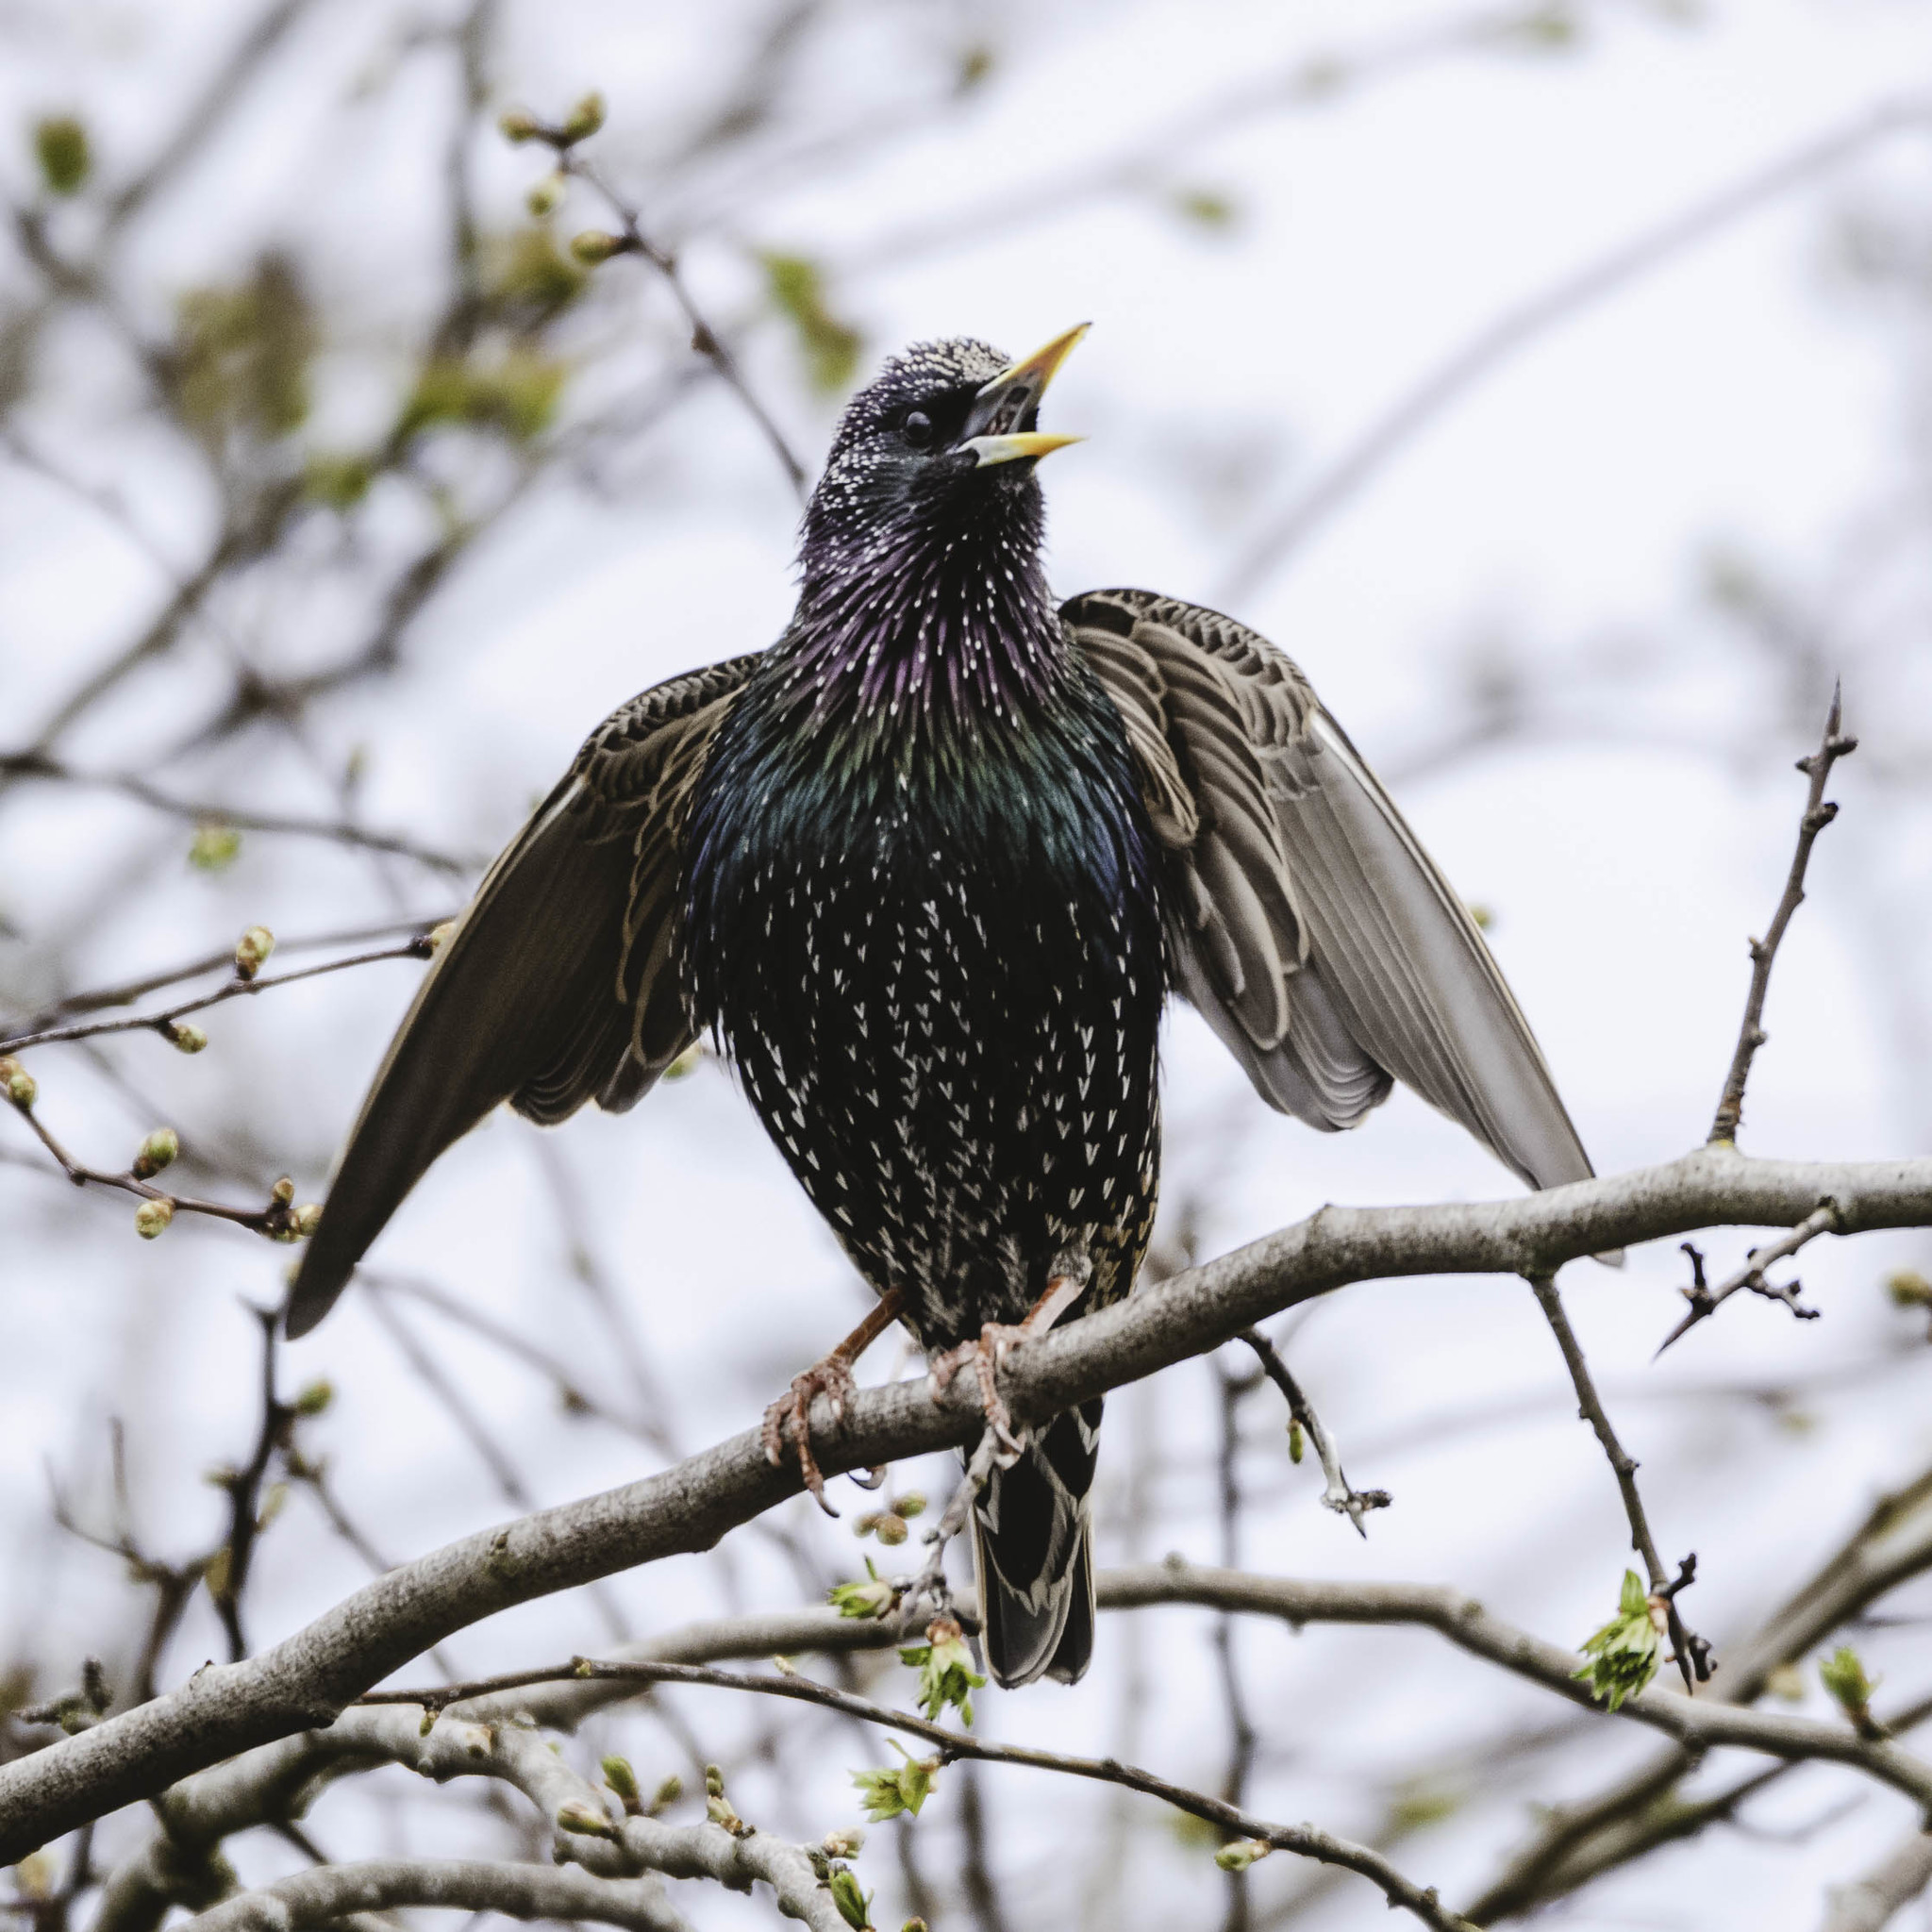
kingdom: Animalia
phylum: Chordata
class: Aves
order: Passeriformes
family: Sturnidae
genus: Sturnus
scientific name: Sturnus vulgaris
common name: Common starling
